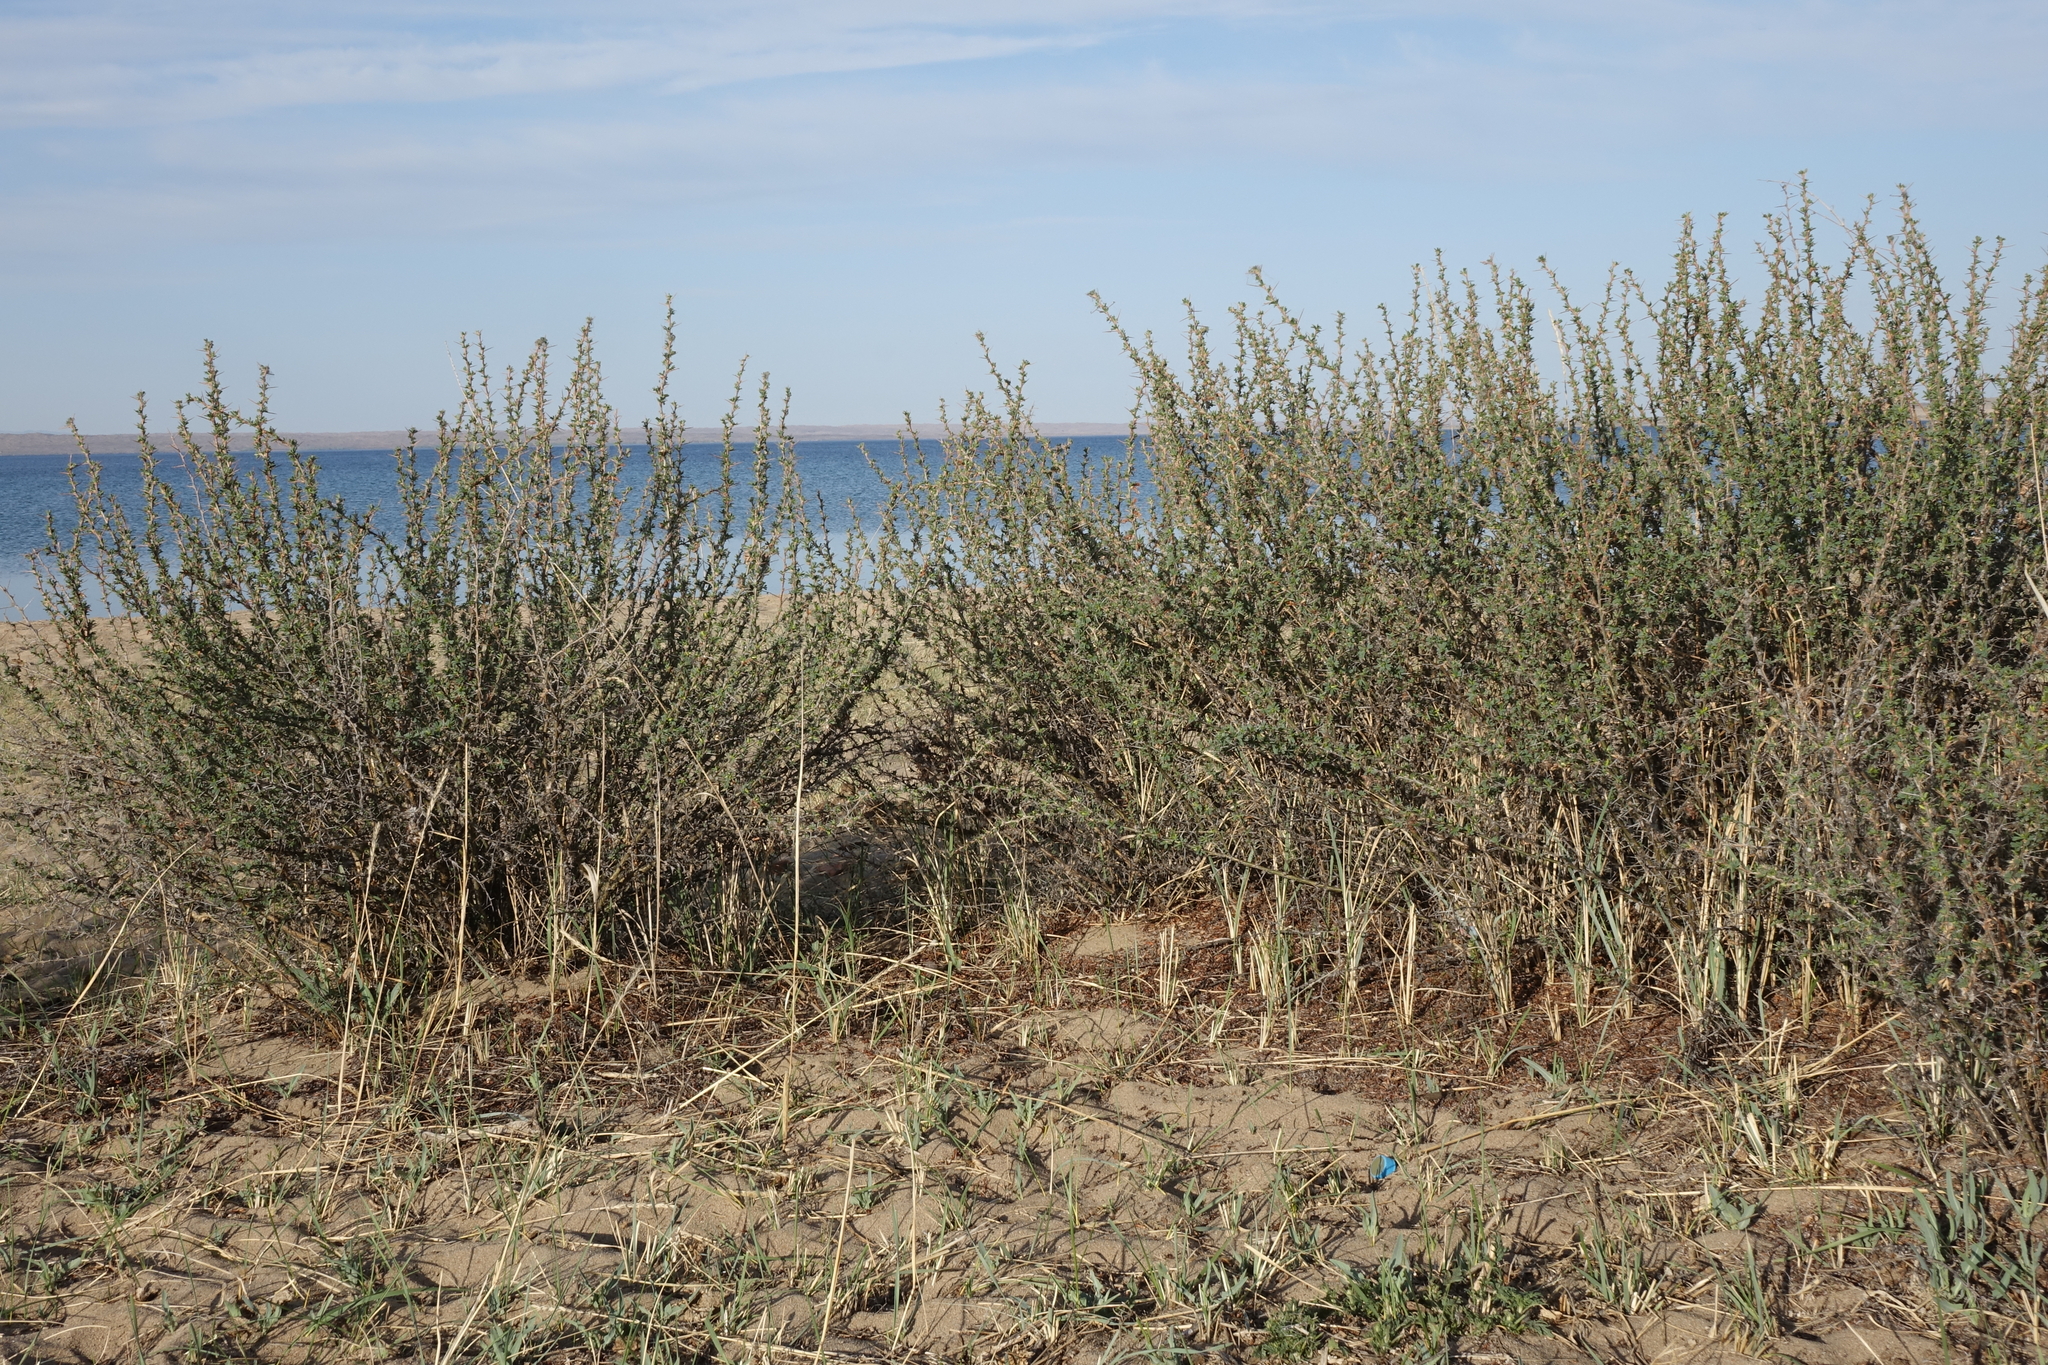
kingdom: Plantae
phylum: Tracheophyta
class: Magnoliopsida
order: Fabales
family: Fabaceae
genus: Caragana
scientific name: Caragana spinosa
